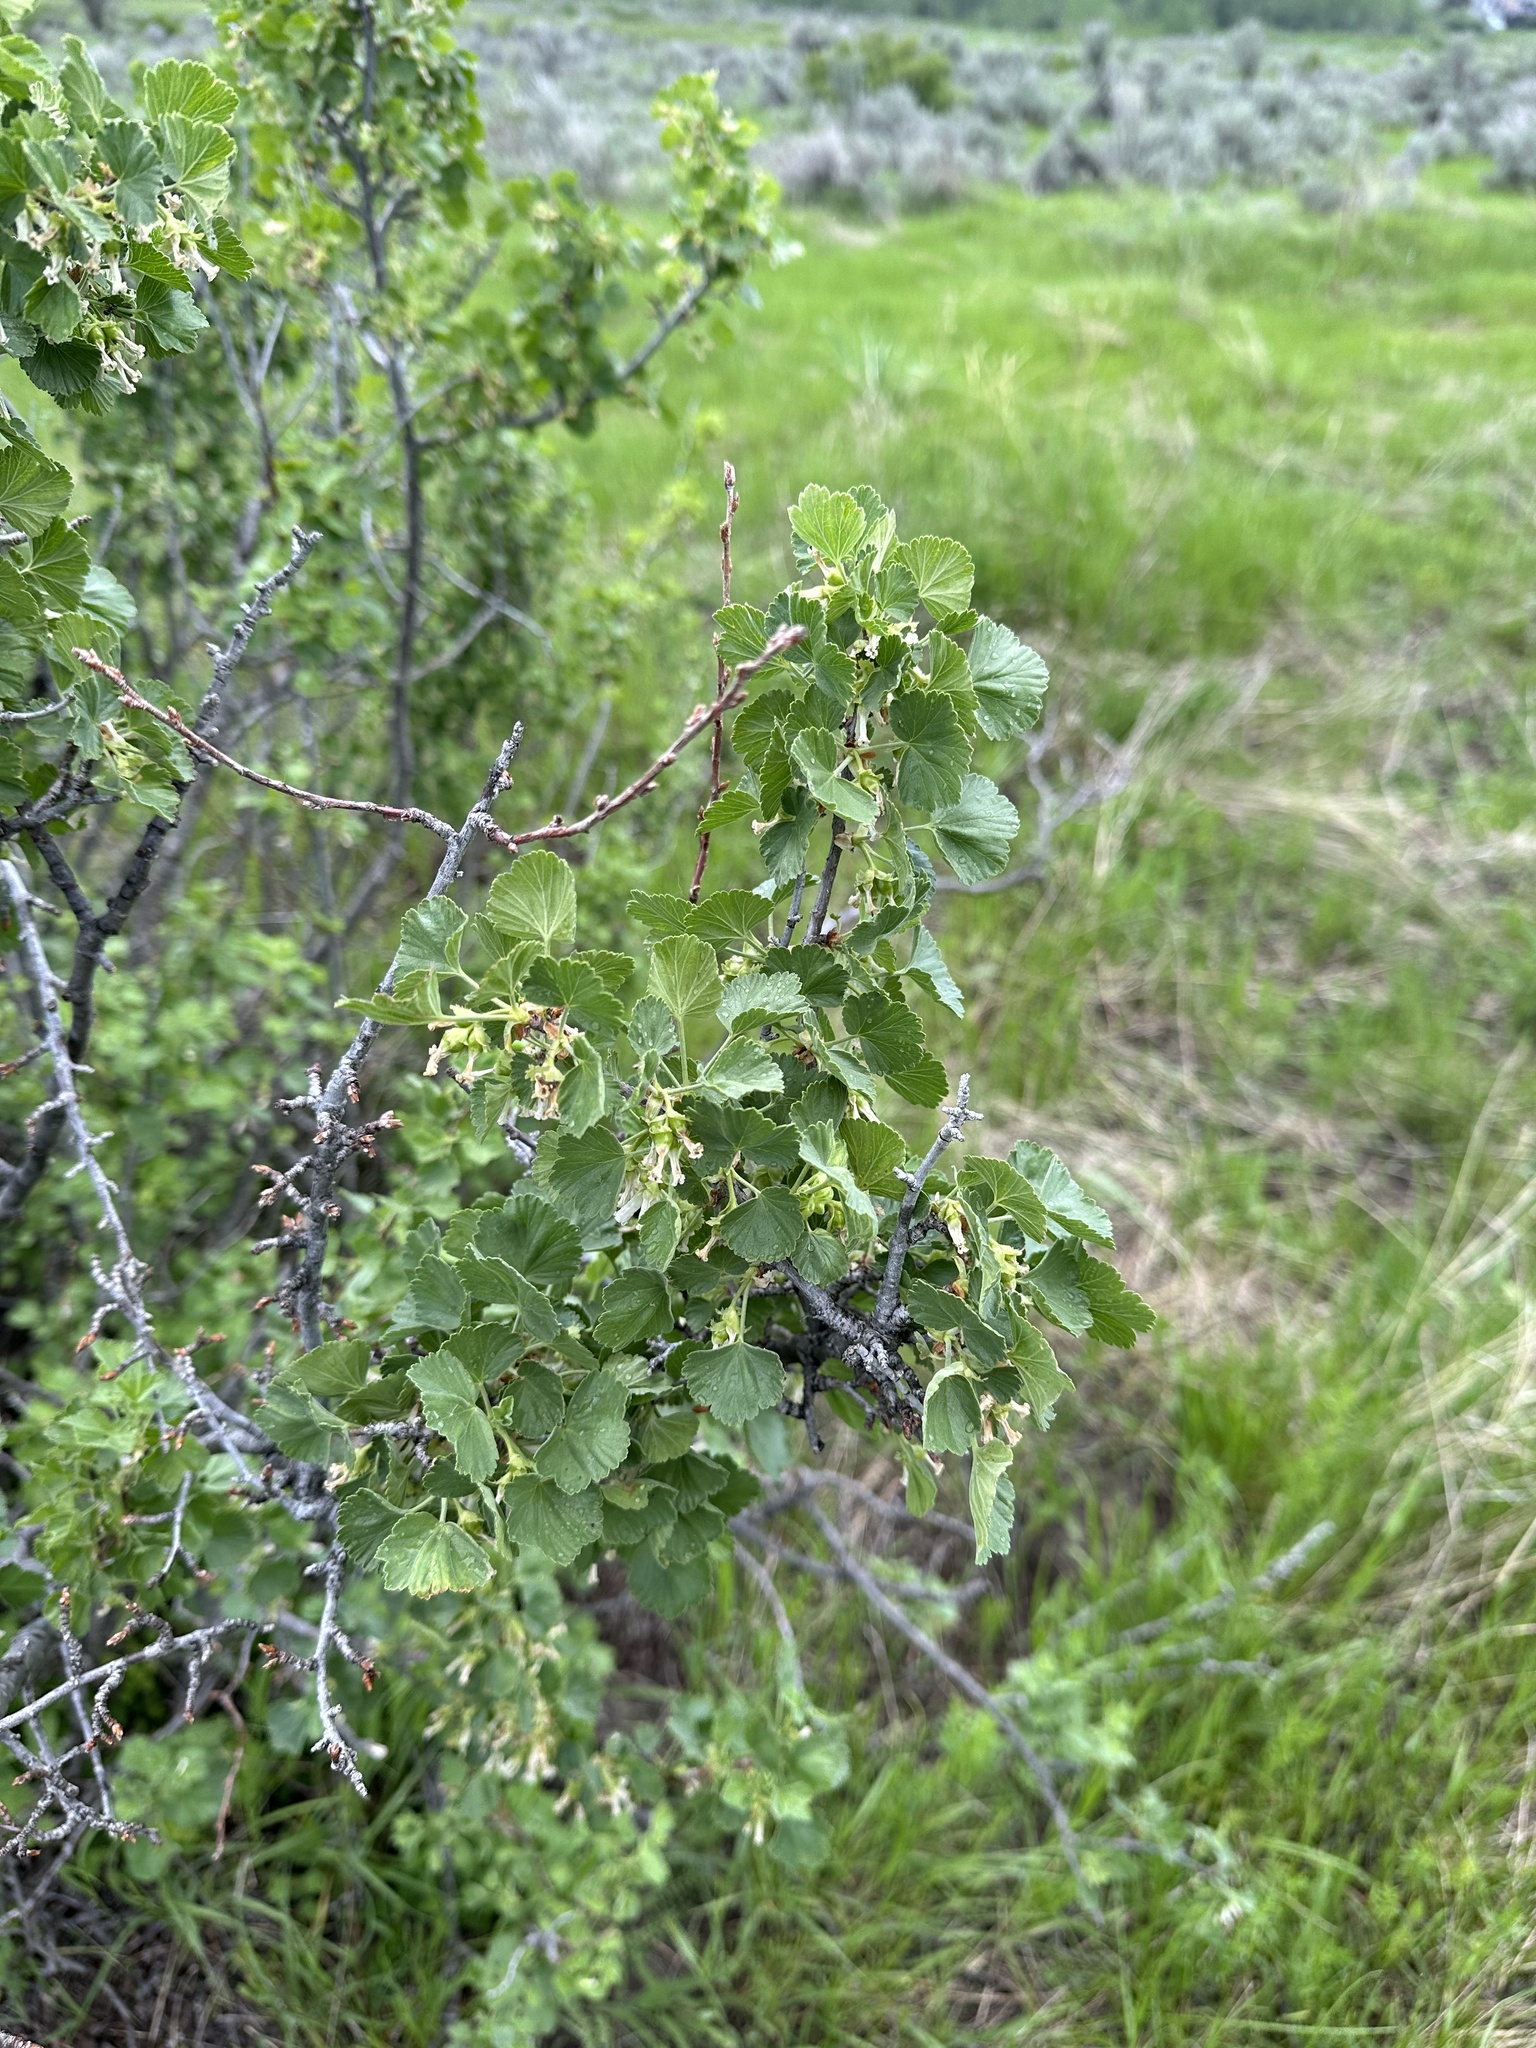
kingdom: Plantae
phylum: Tracheophyta
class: Magnoliopsida
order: Saxifragales
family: Grossulariaceae
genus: Ribes
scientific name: Ribes cereum
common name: Wax currant
